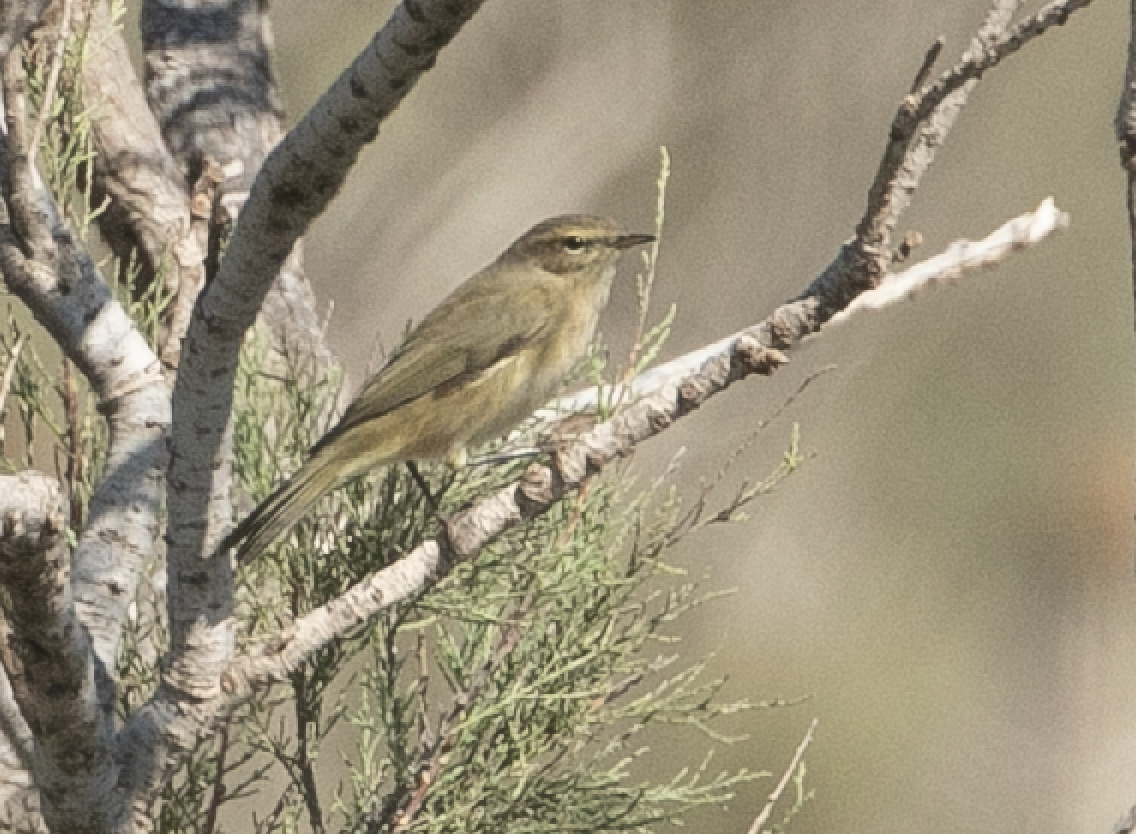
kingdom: Animalia
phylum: Chordata
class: Aves
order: Passeriformes
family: Phylloscopidae
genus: Phylloscopus
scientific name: Phylloscopus collybita
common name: Common chiffchaff
